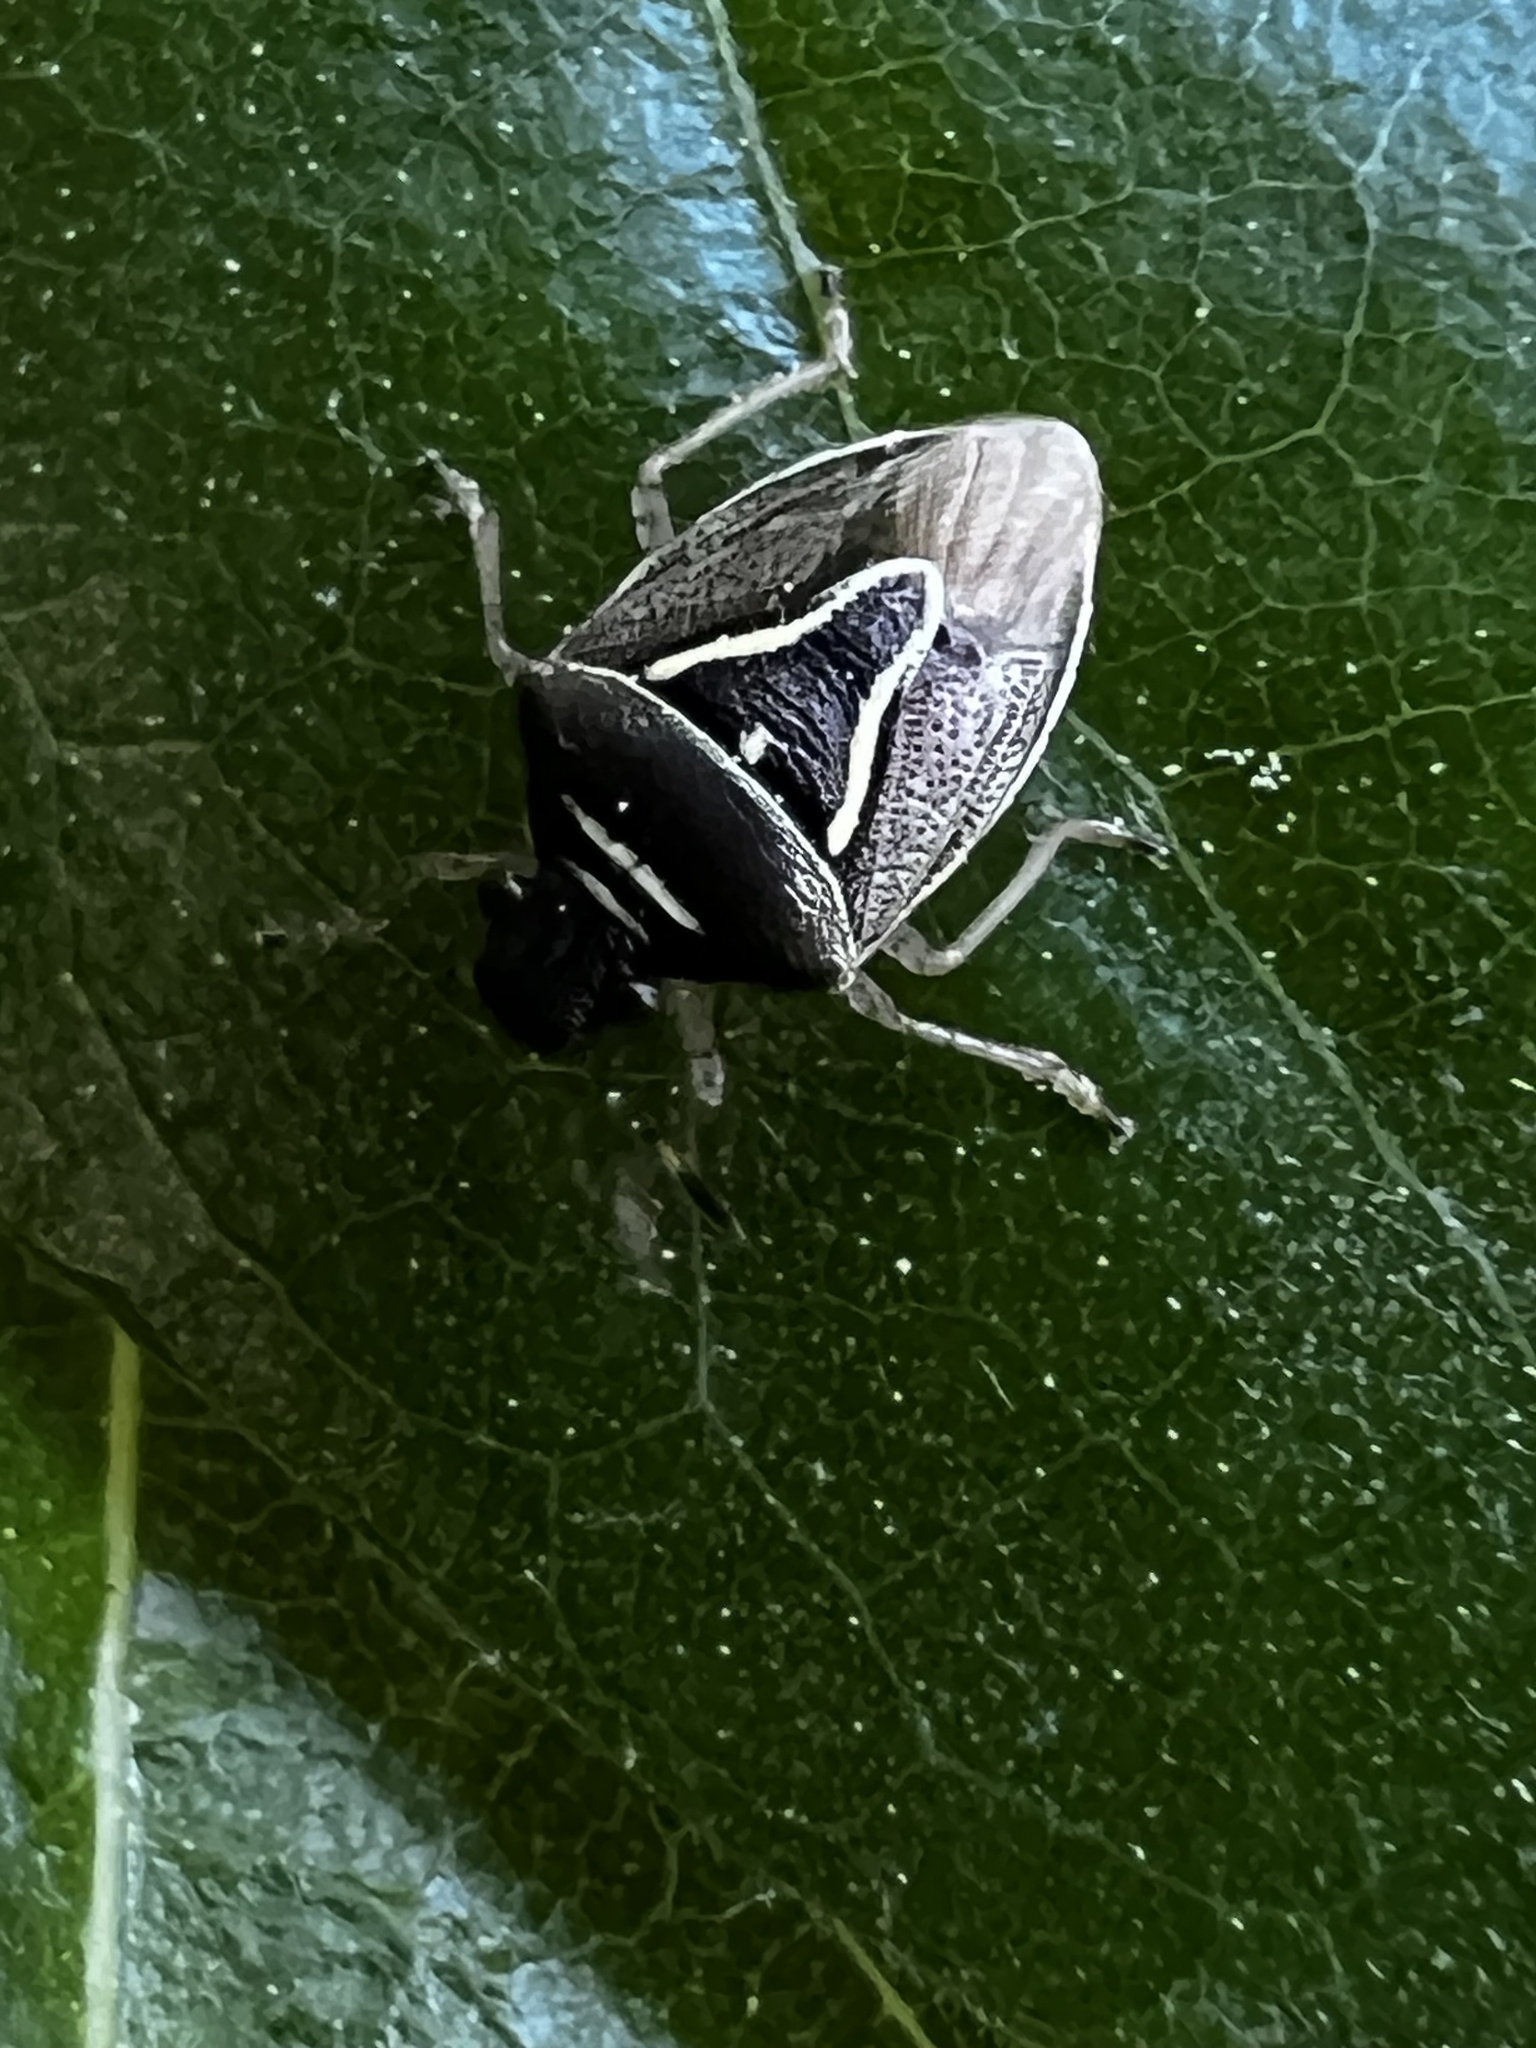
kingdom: Animalia
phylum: Arthropoda
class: Insecta
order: Hemiptera
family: Pentatomidae
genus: Mormidea
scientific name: Mormidea lugens
